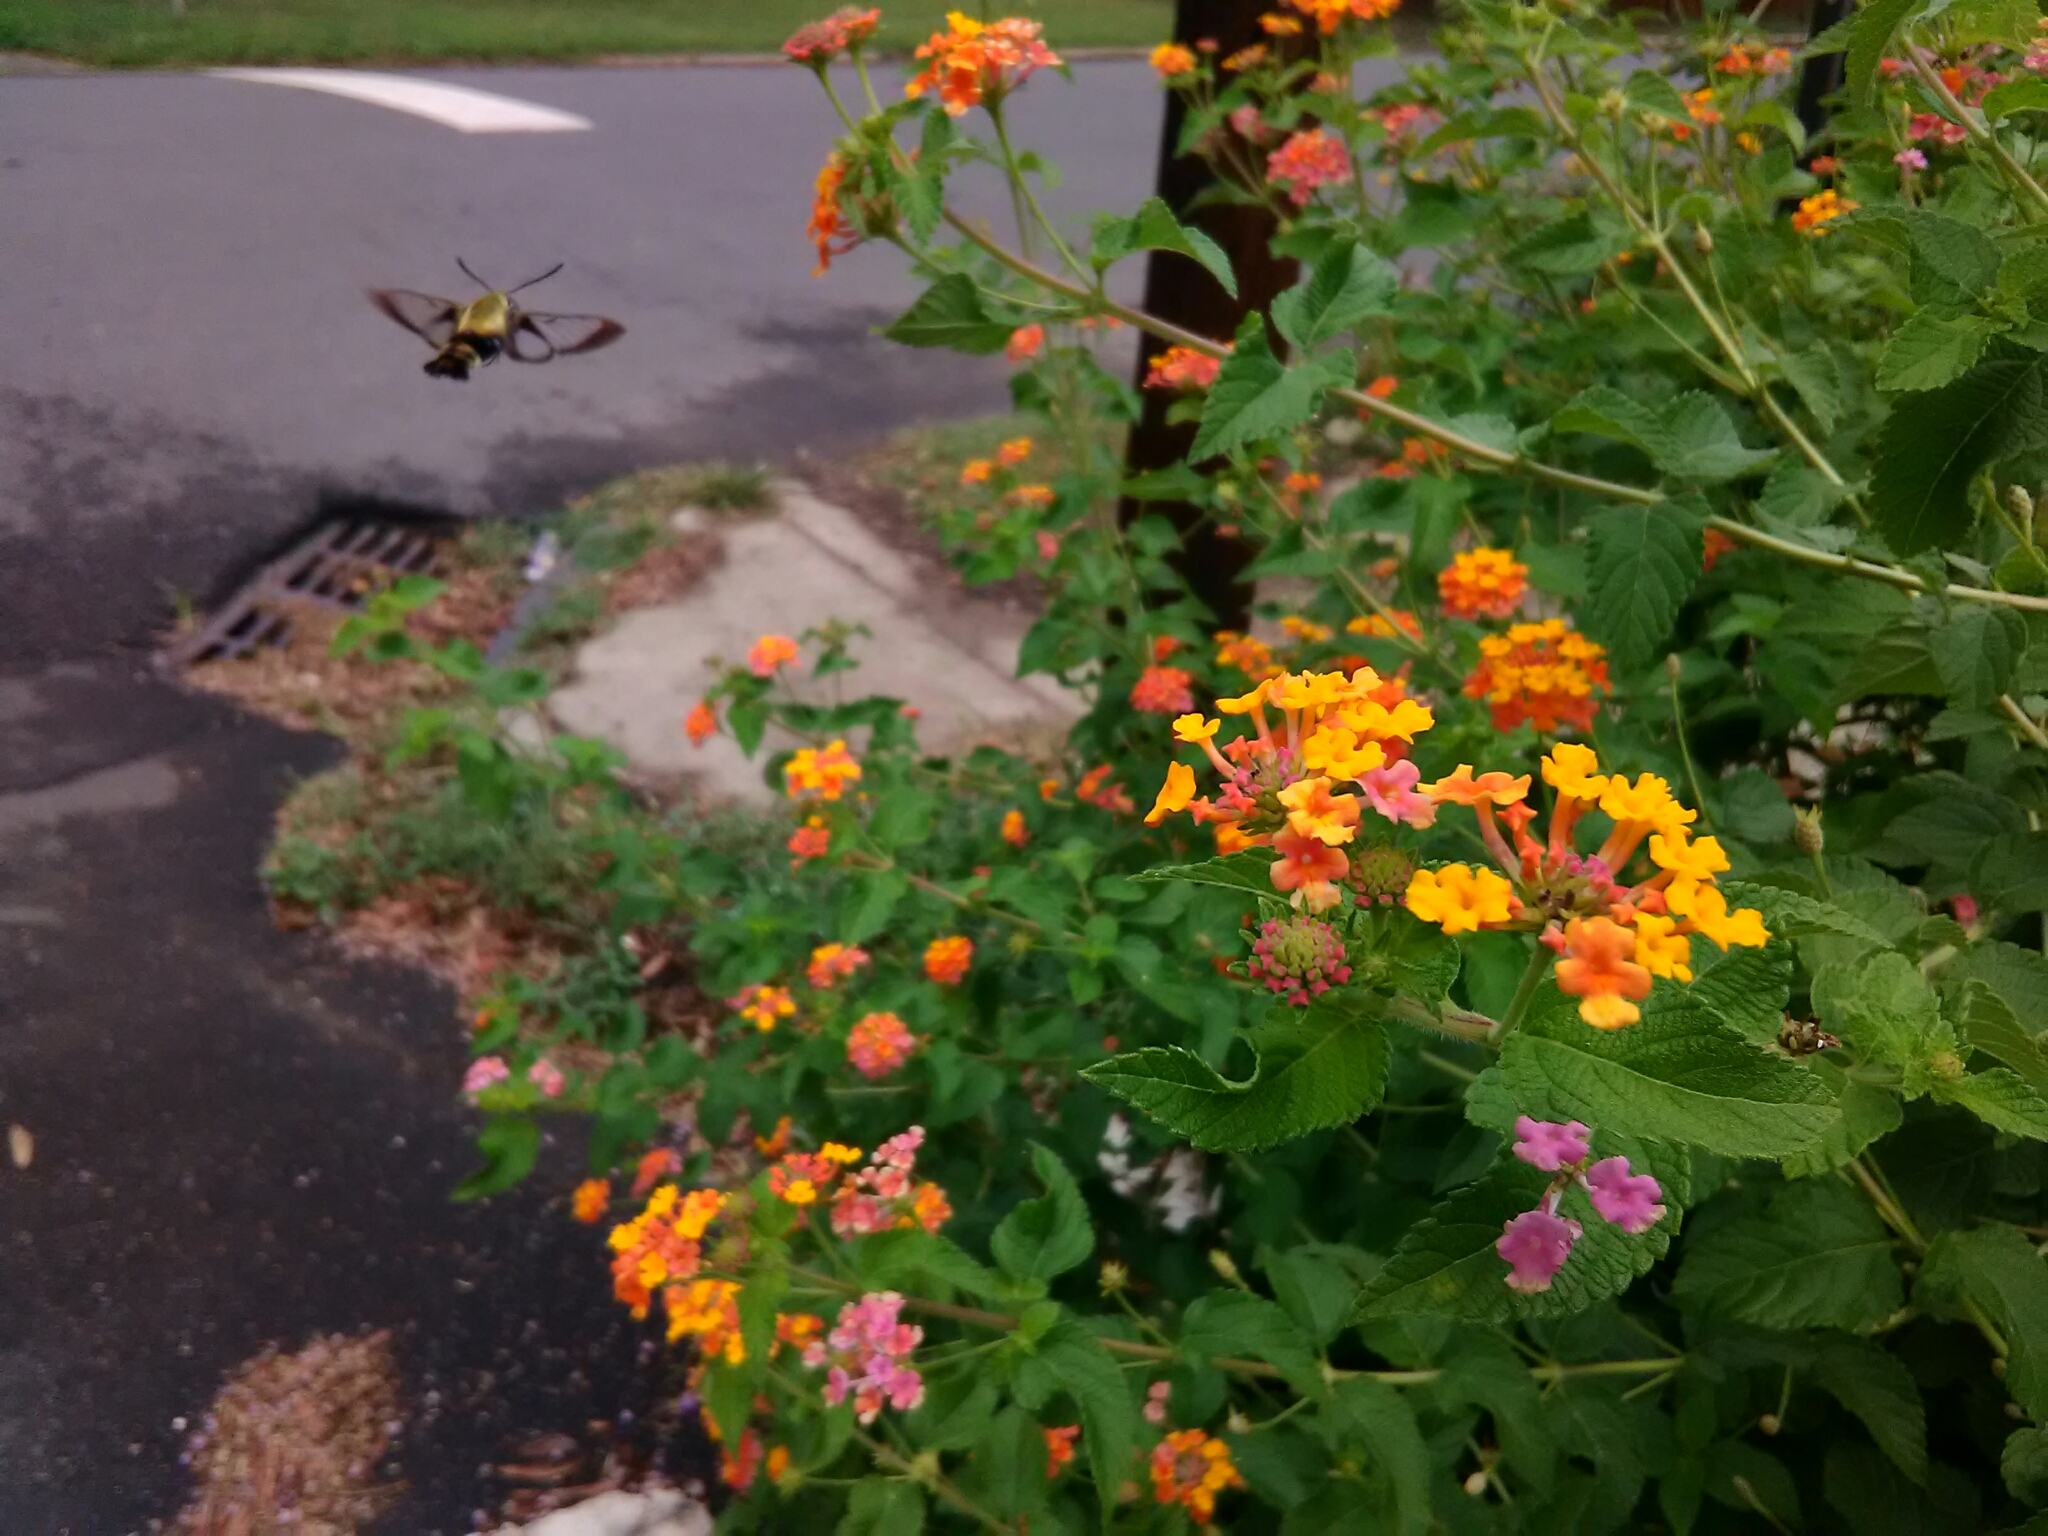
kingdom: Animalia
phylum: Arthropoda
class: Insecta
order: Lepidoptera
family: Sphingidae
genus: Hemaris
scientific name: Hemaris diffinis
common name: Bumblebee moth
